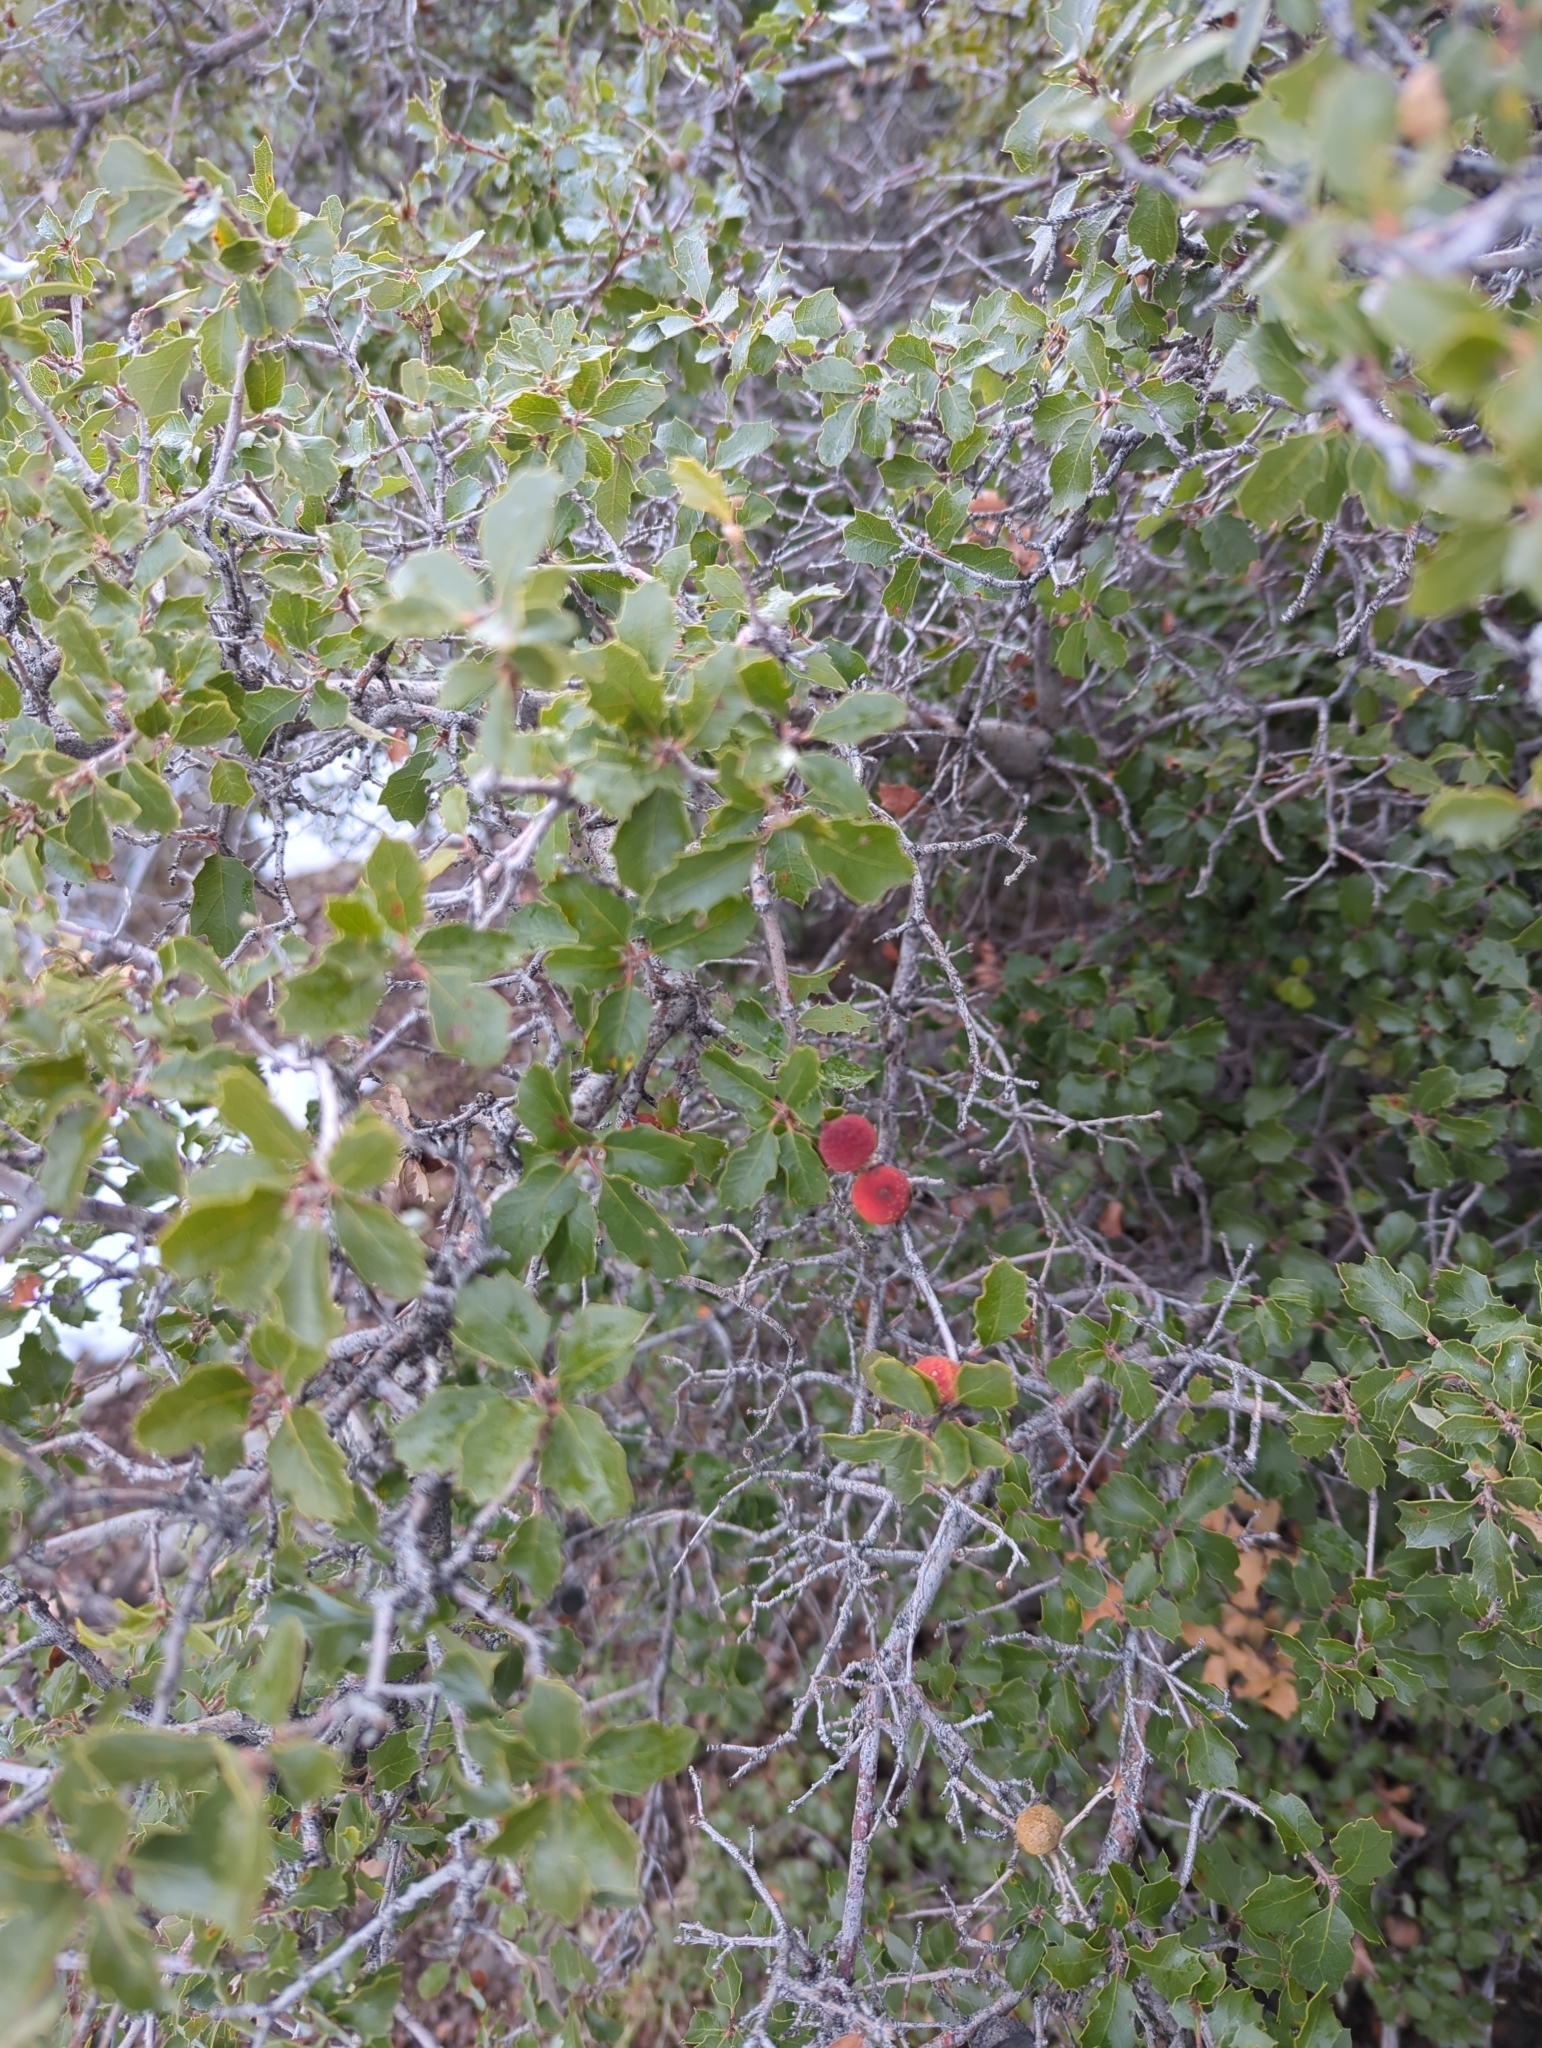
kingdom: Plantae
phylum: Tracheophyta
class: Magnoliopsida
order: Fagales
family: Fagaceae
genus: Quercus
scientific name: Quercus berberidifolia
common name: California scrub oak
